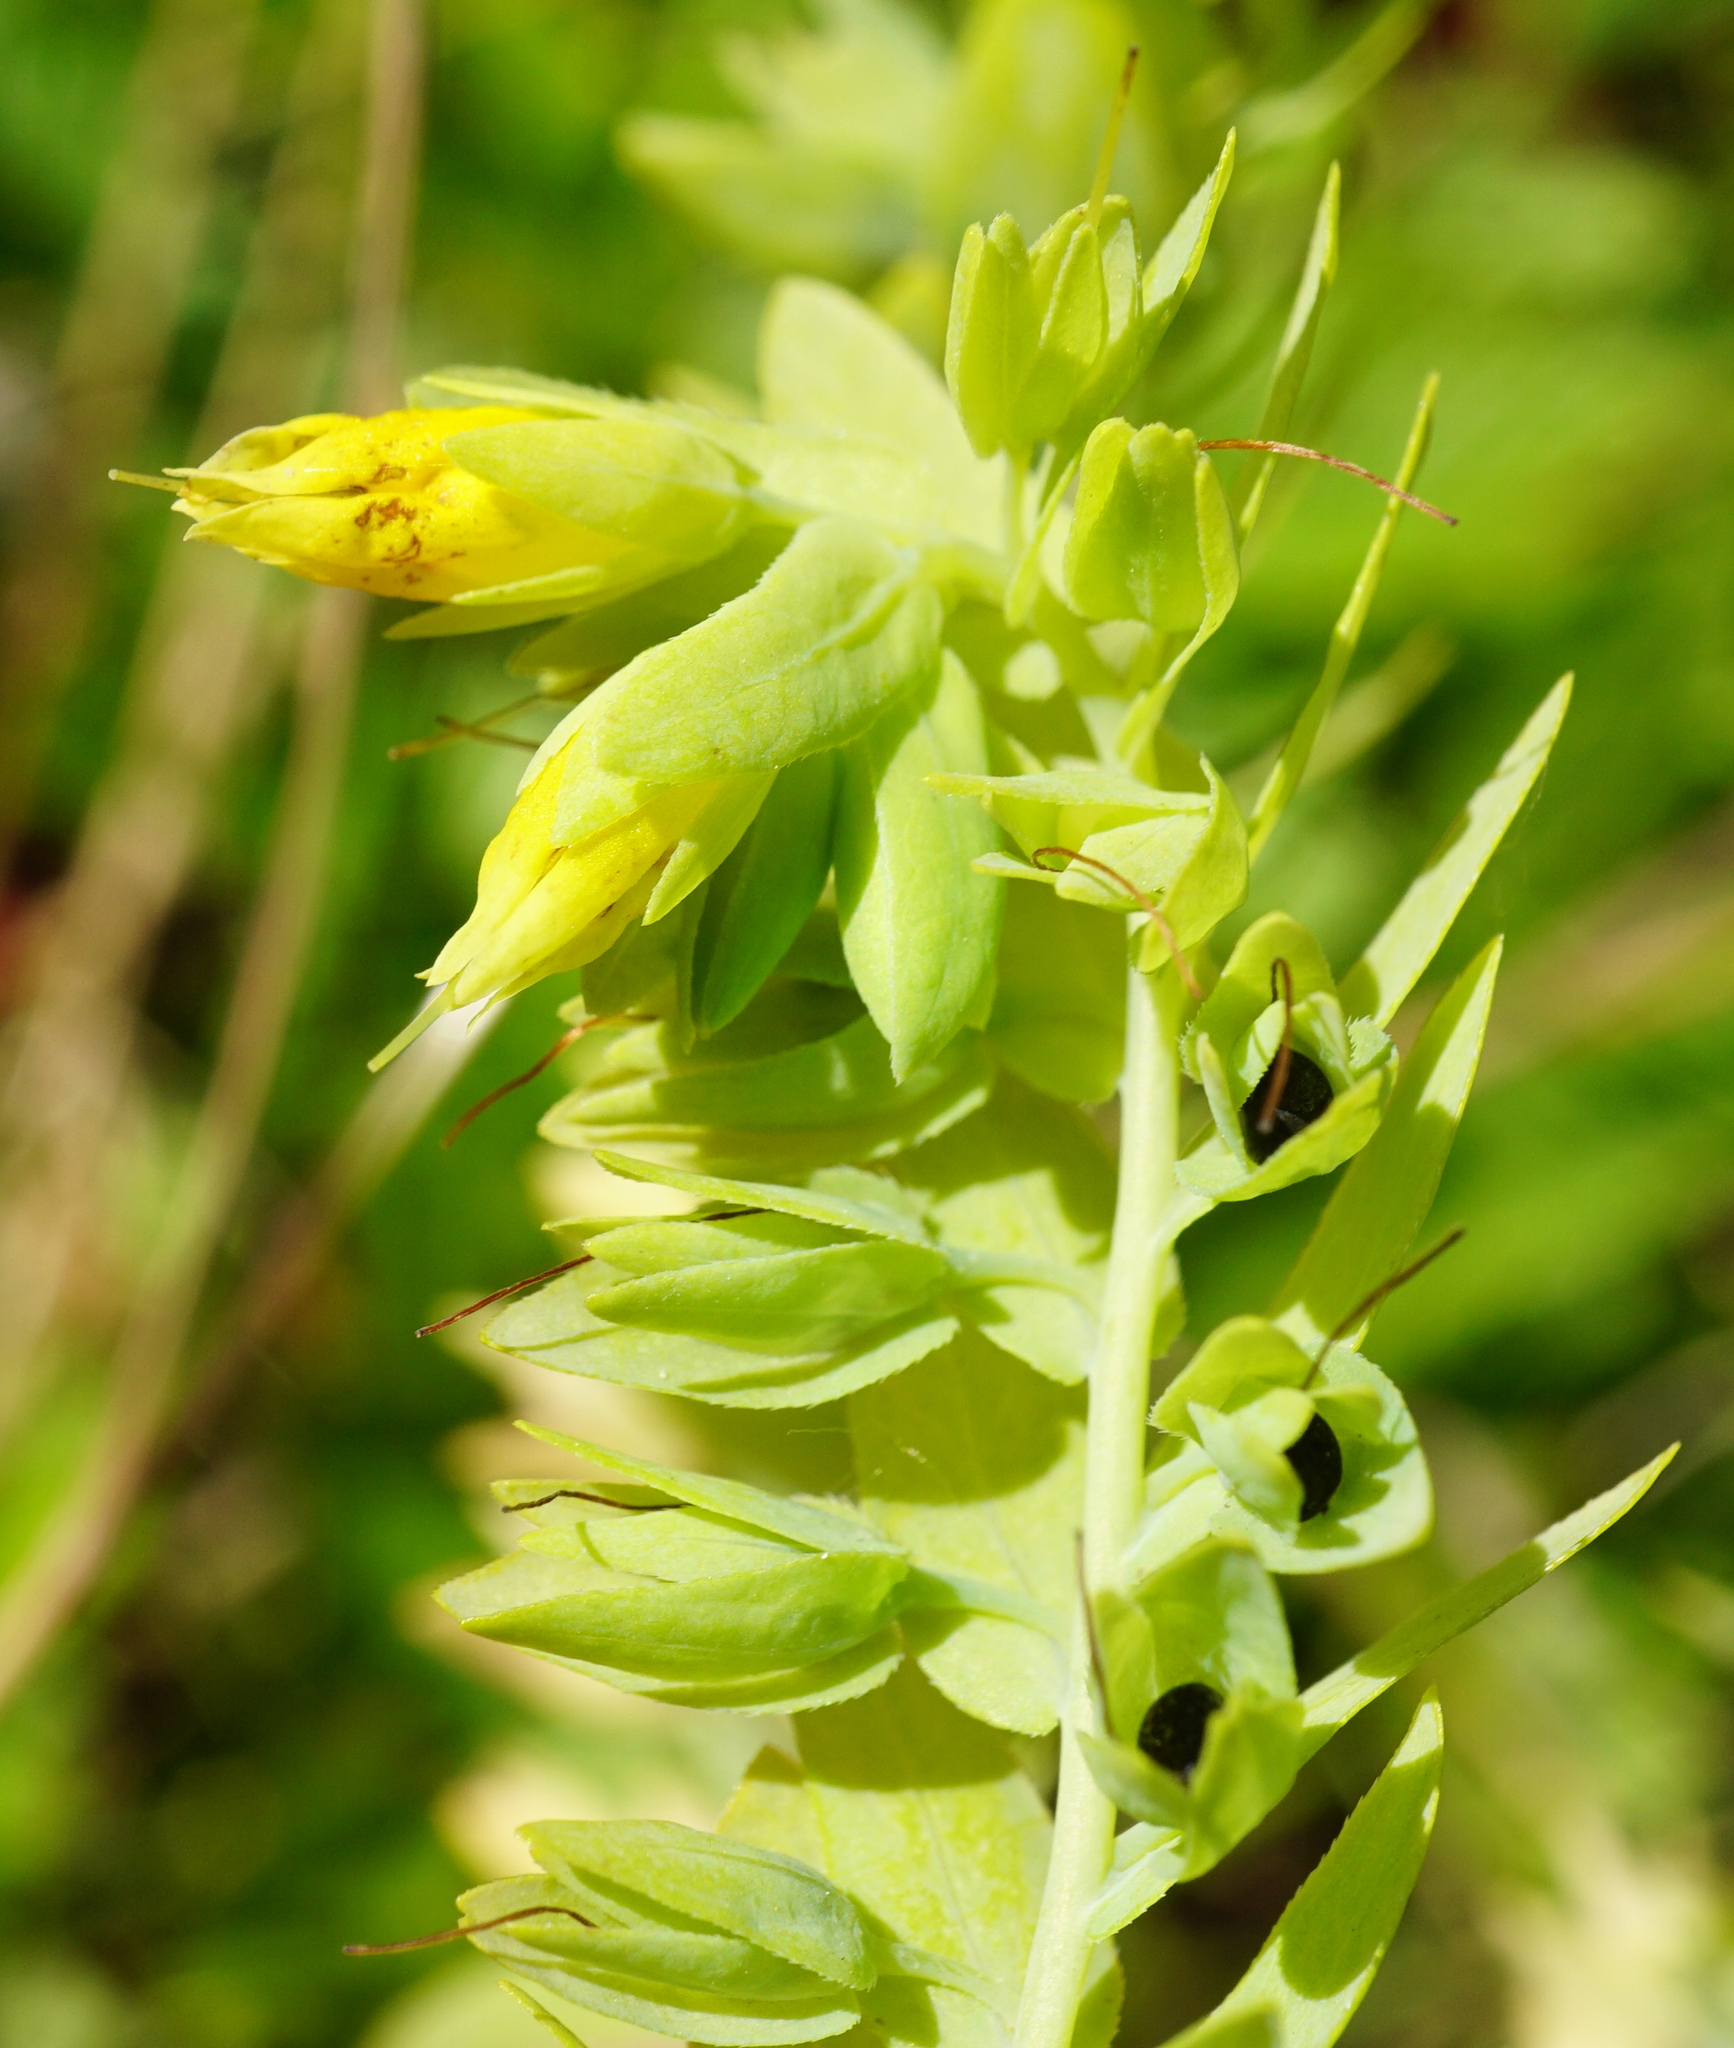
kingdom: Plantae
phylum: Tracheophyta
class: Magnoliopsida
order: Boraginales
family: Boraginaceae
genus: Cerinthe
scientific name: Cerinthe minor
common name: Lesser honeywort
